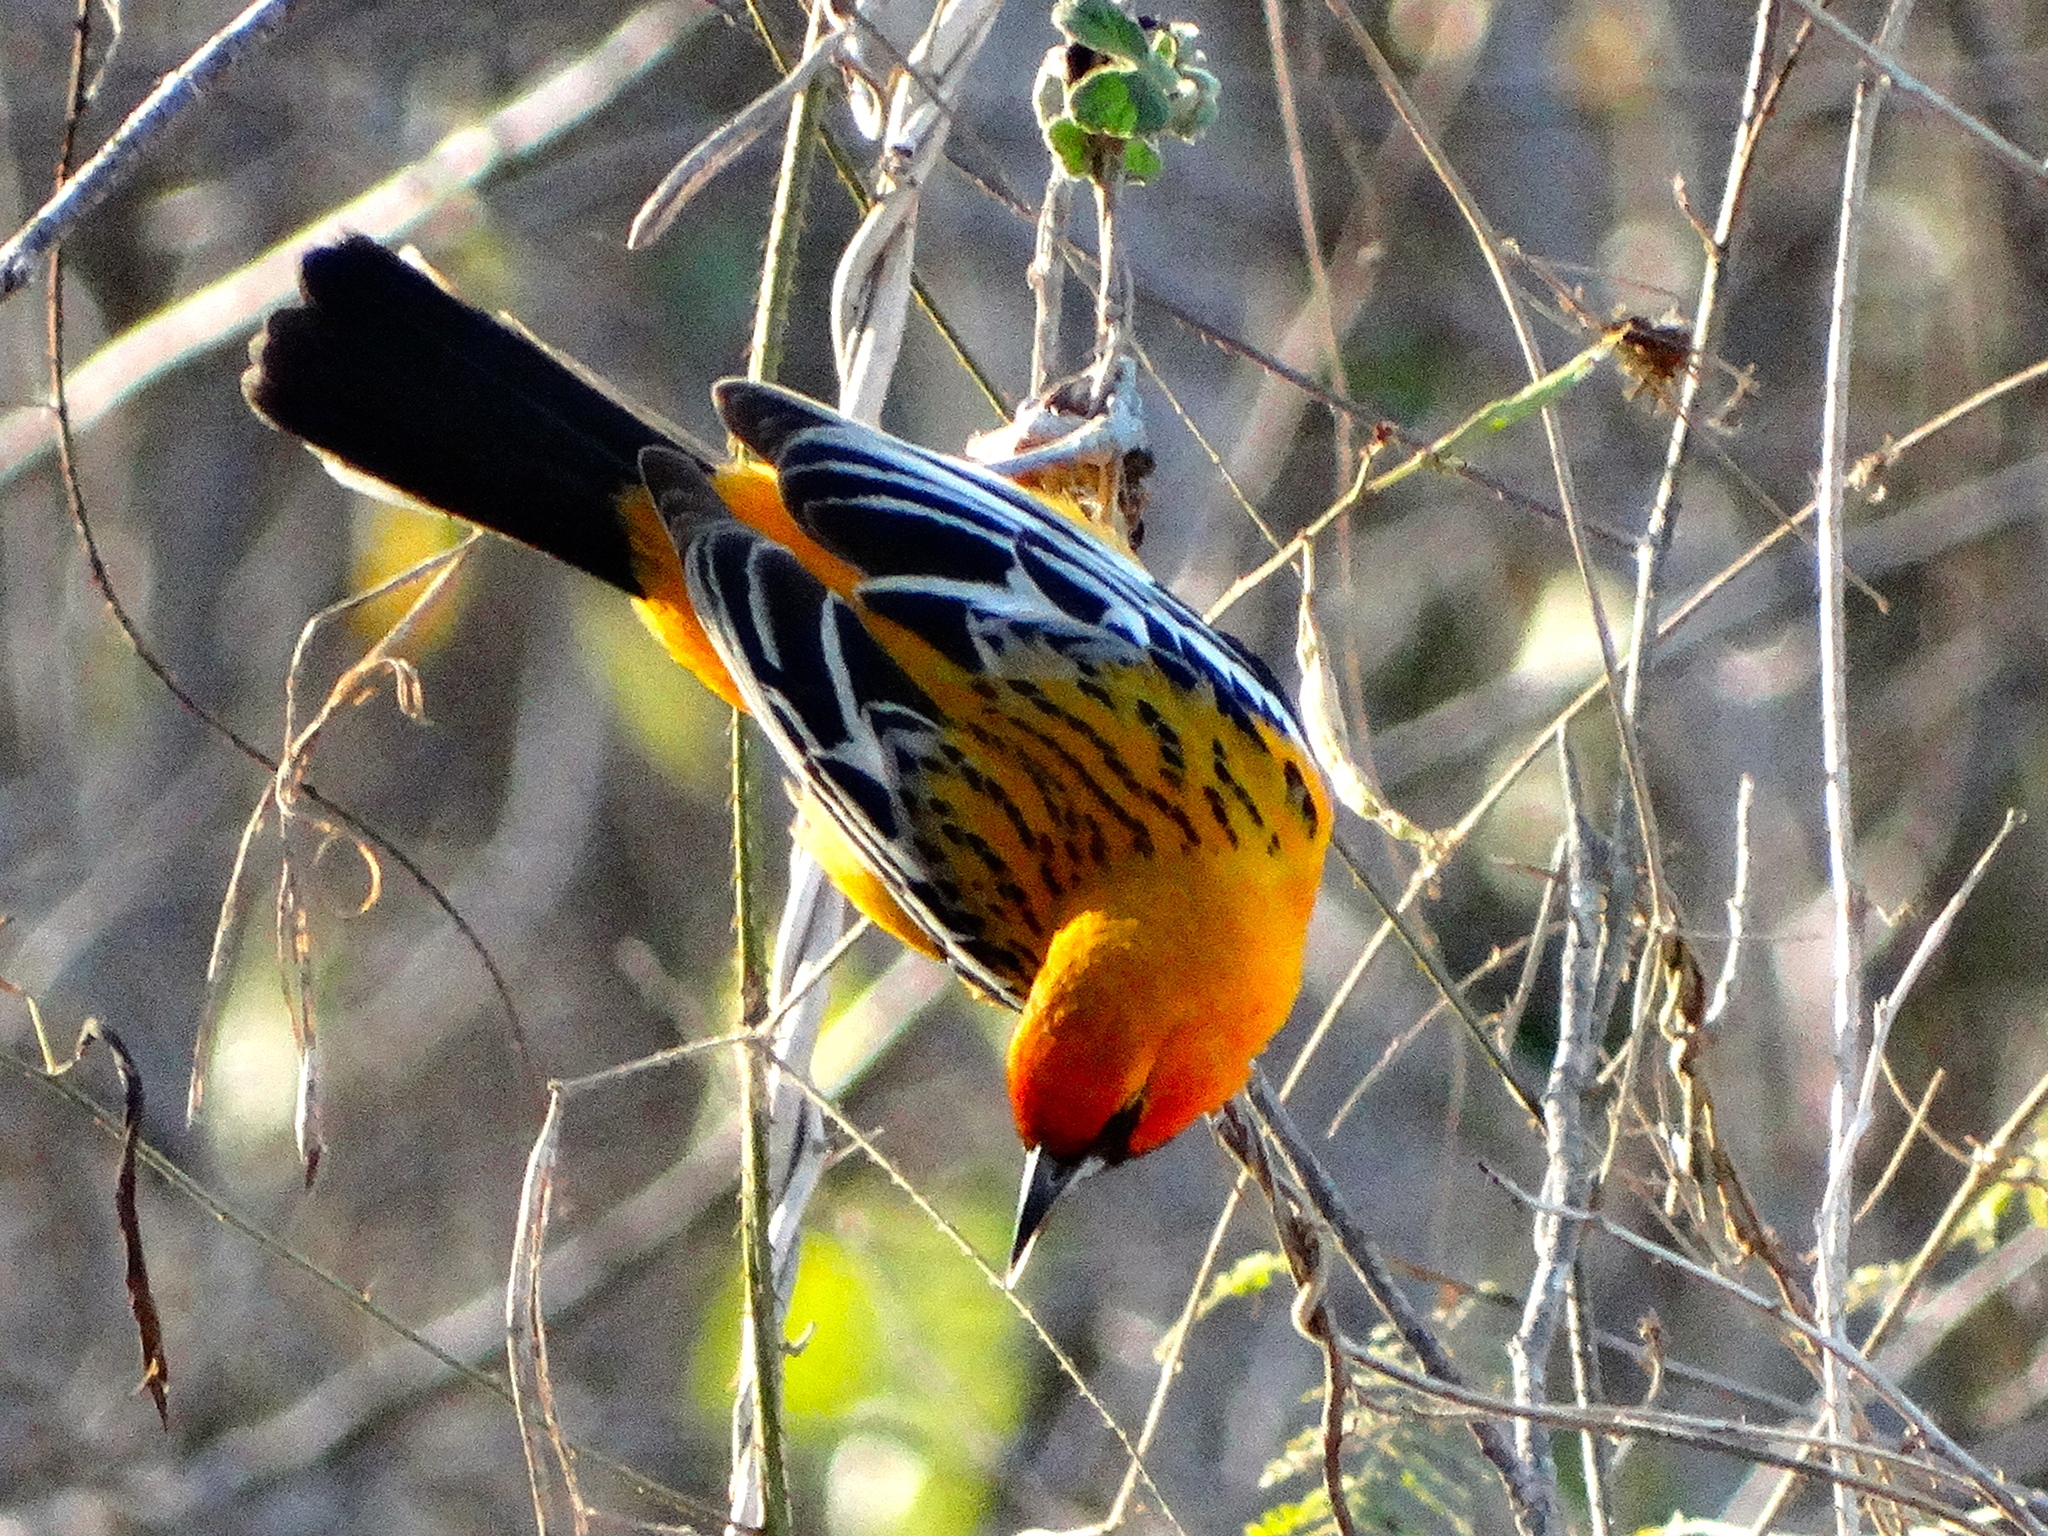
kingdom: Animalia
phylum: Chordata
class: Aves
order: Passeriformes
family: Icteridae
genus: Icterus
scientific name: Icterus pustulatus
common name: Streak-backed oriole
